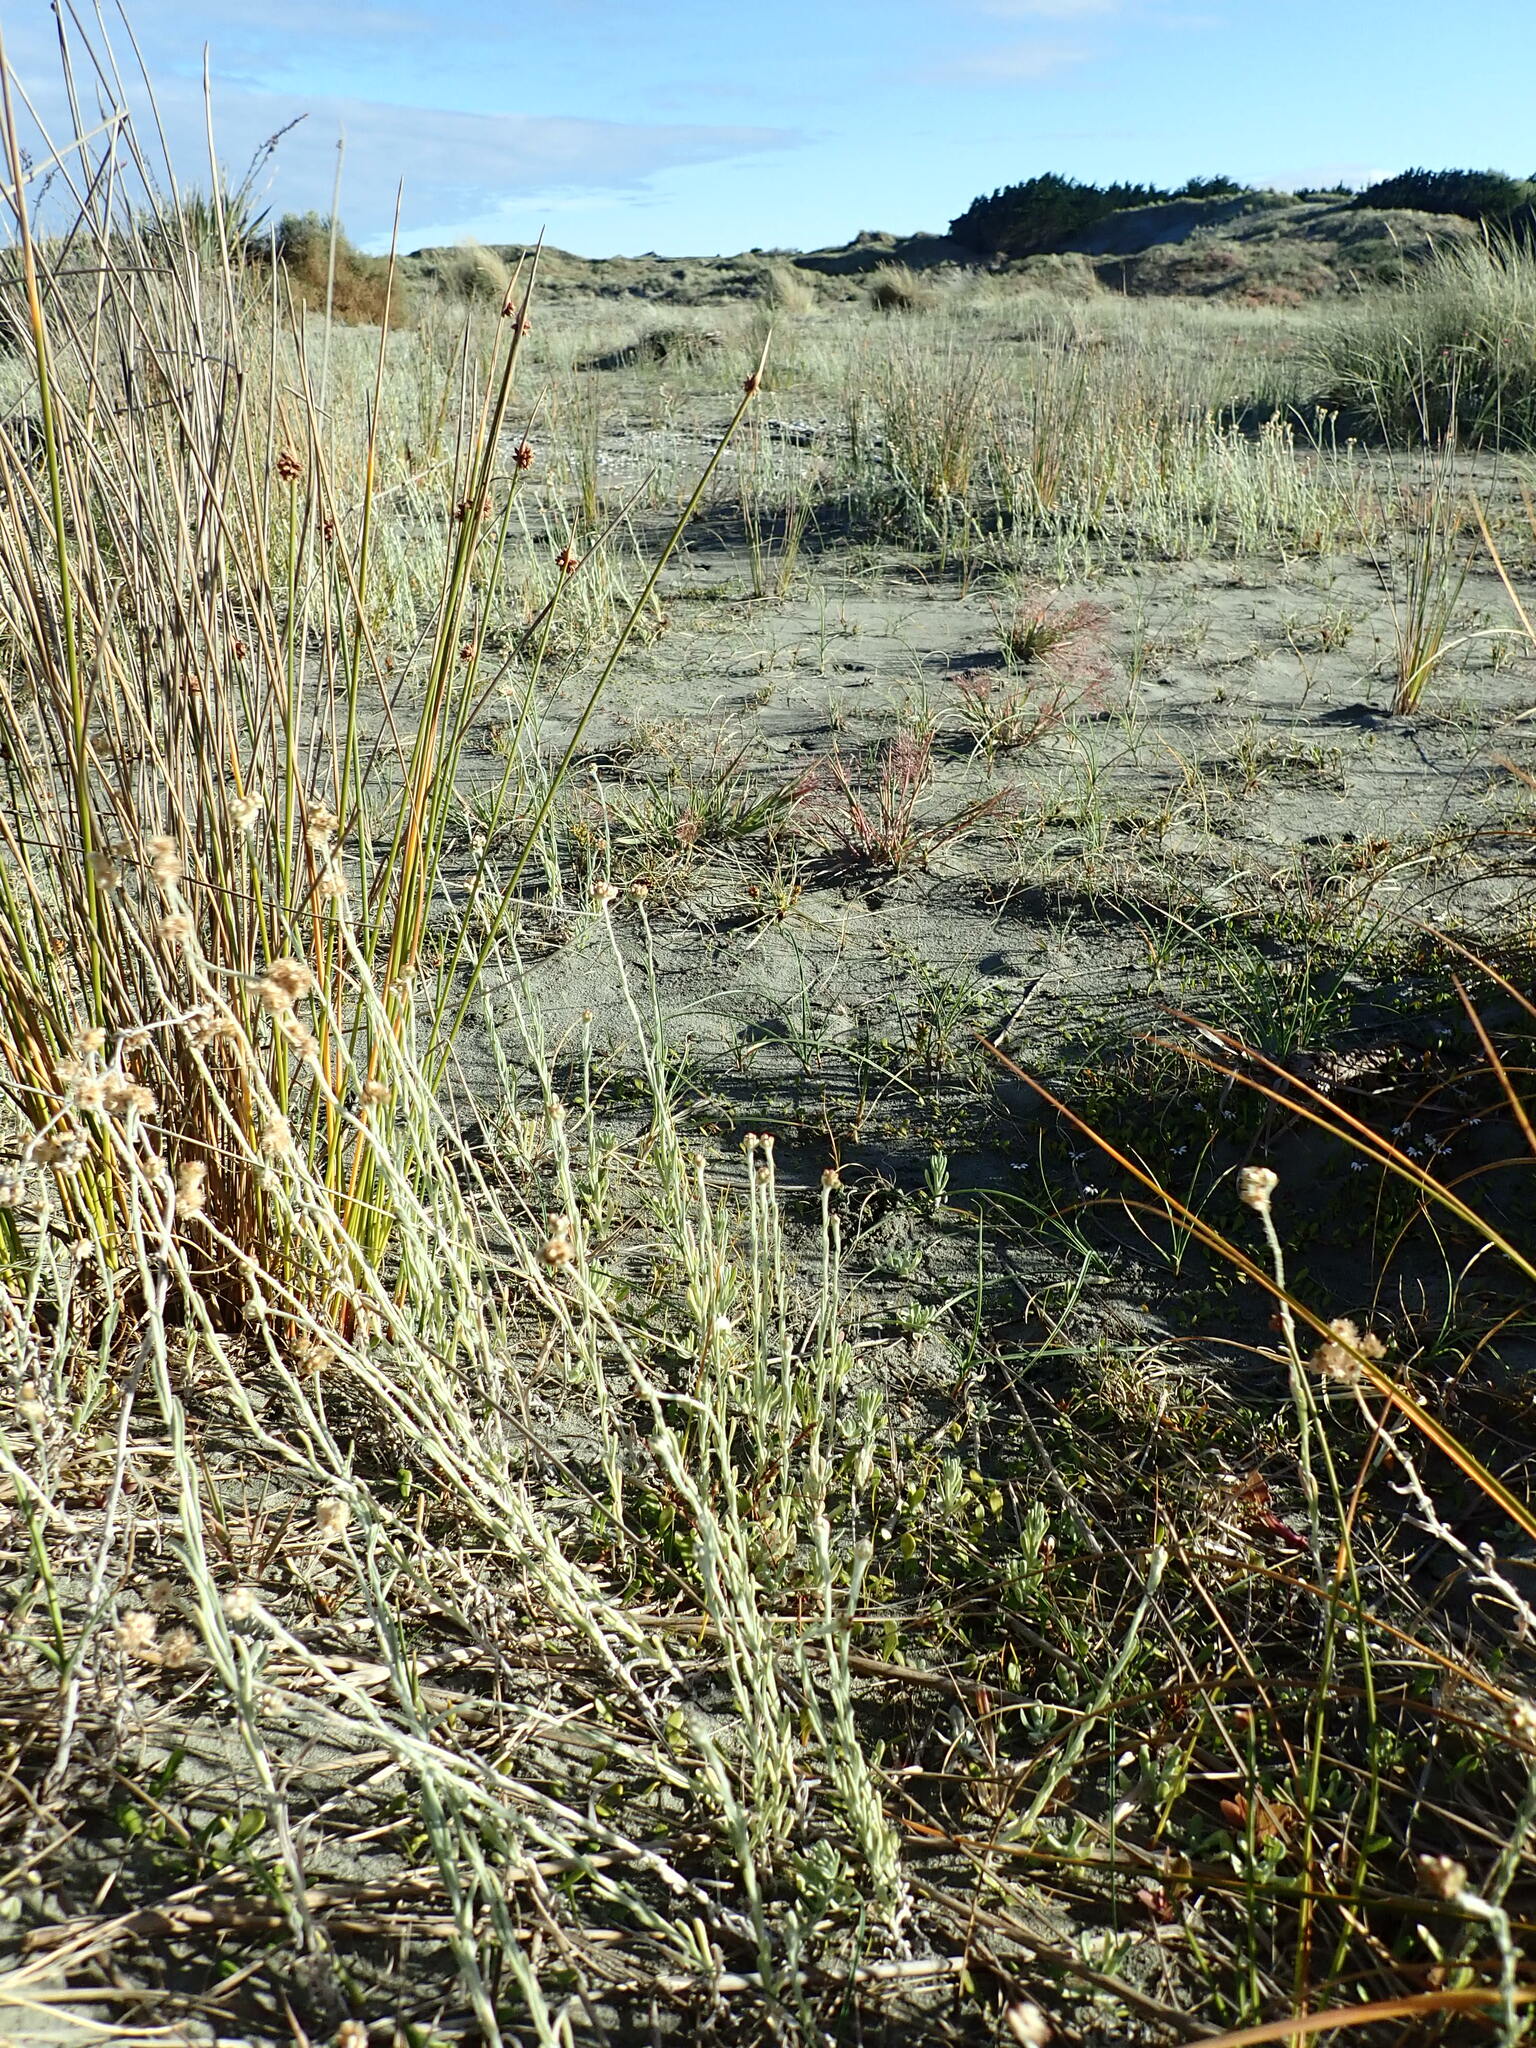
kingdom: Plantae
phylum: Tracheophyta
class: Magnoliopsida
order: Ericales
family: Primulaceae
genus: Samolus
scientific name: Samolus repens
